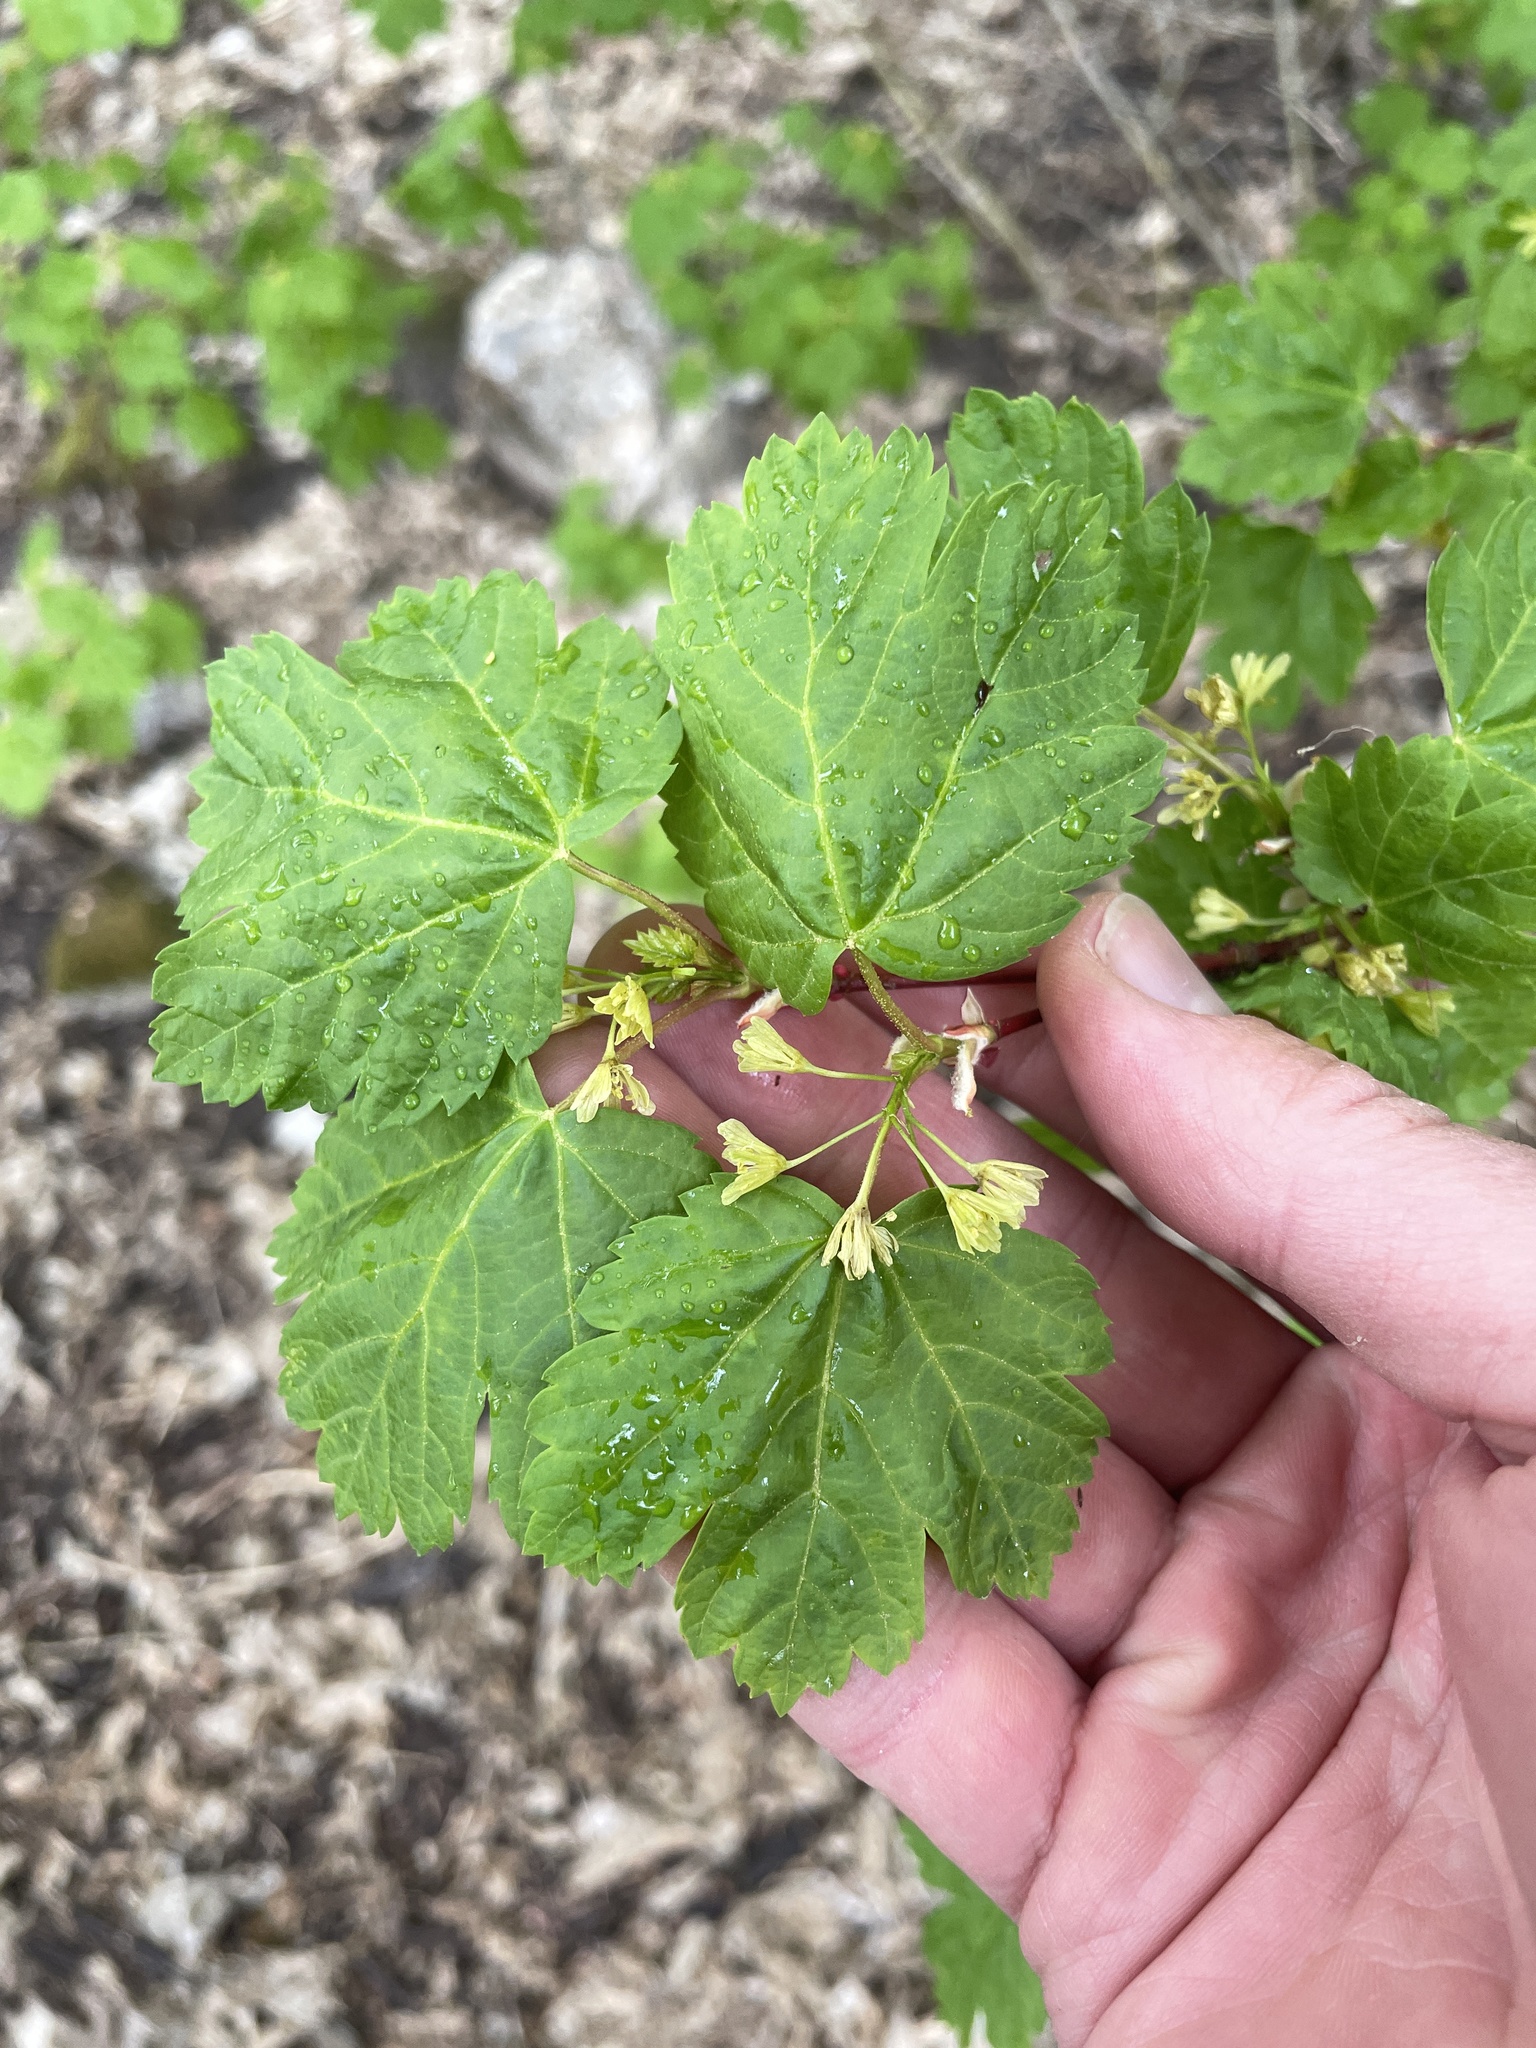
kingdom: Plantae
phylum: Tracheophyta
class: Magnoliopsida
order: Sapindales
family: Sapindaceae
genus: Acer
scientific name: Acer glabrum
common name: Rocky mountain maple
